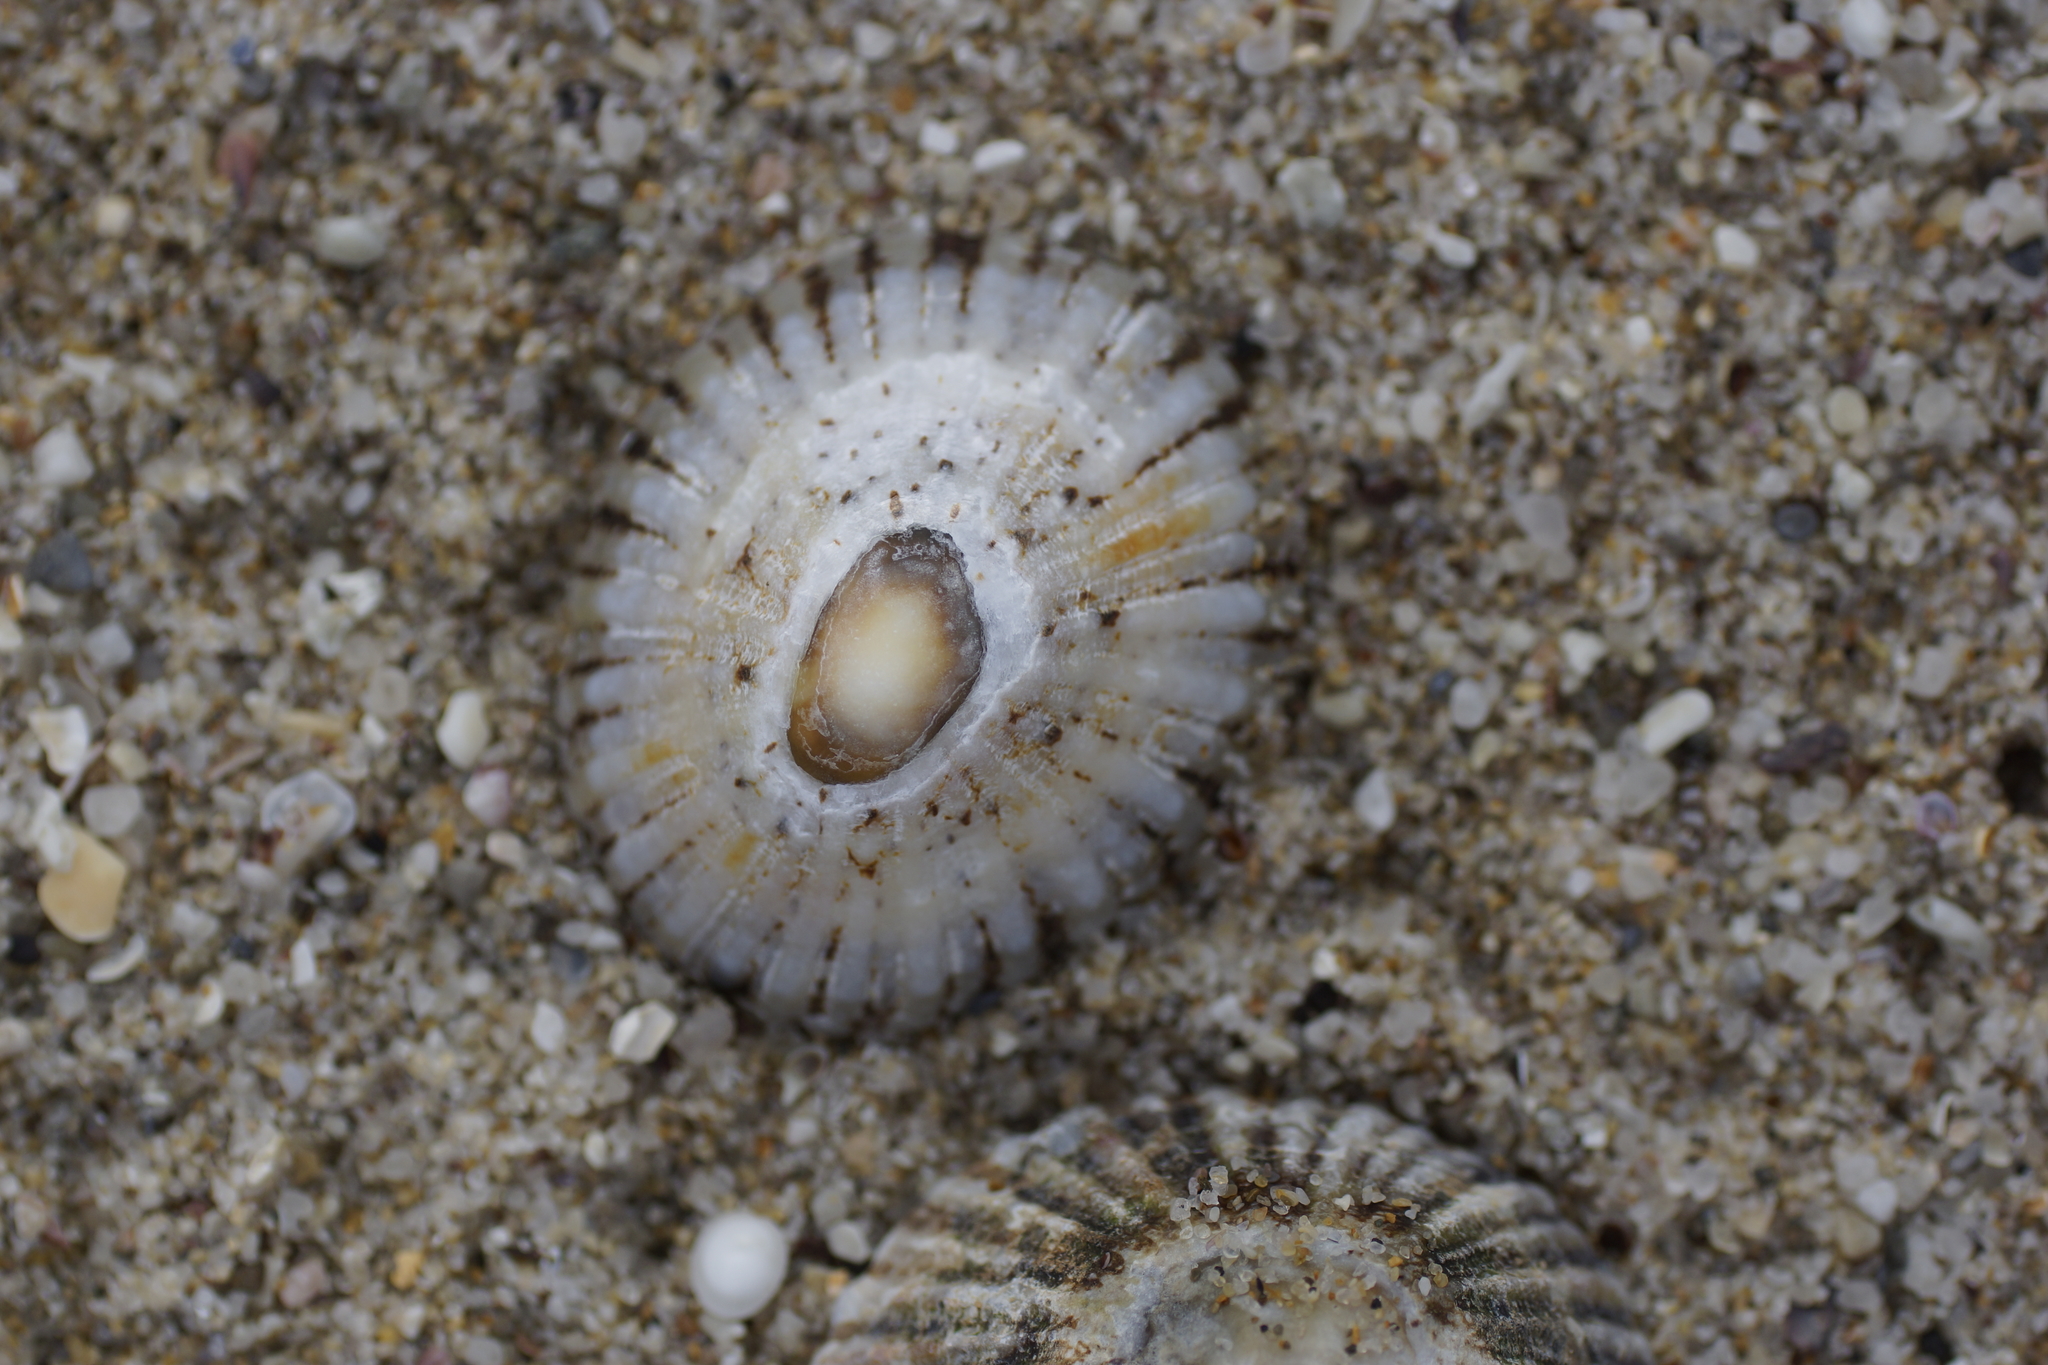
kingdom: Animalia
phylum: Mollusca
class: Gastropoda
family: Nacellidae
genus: Cellana
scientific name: Cellana tramoserica
